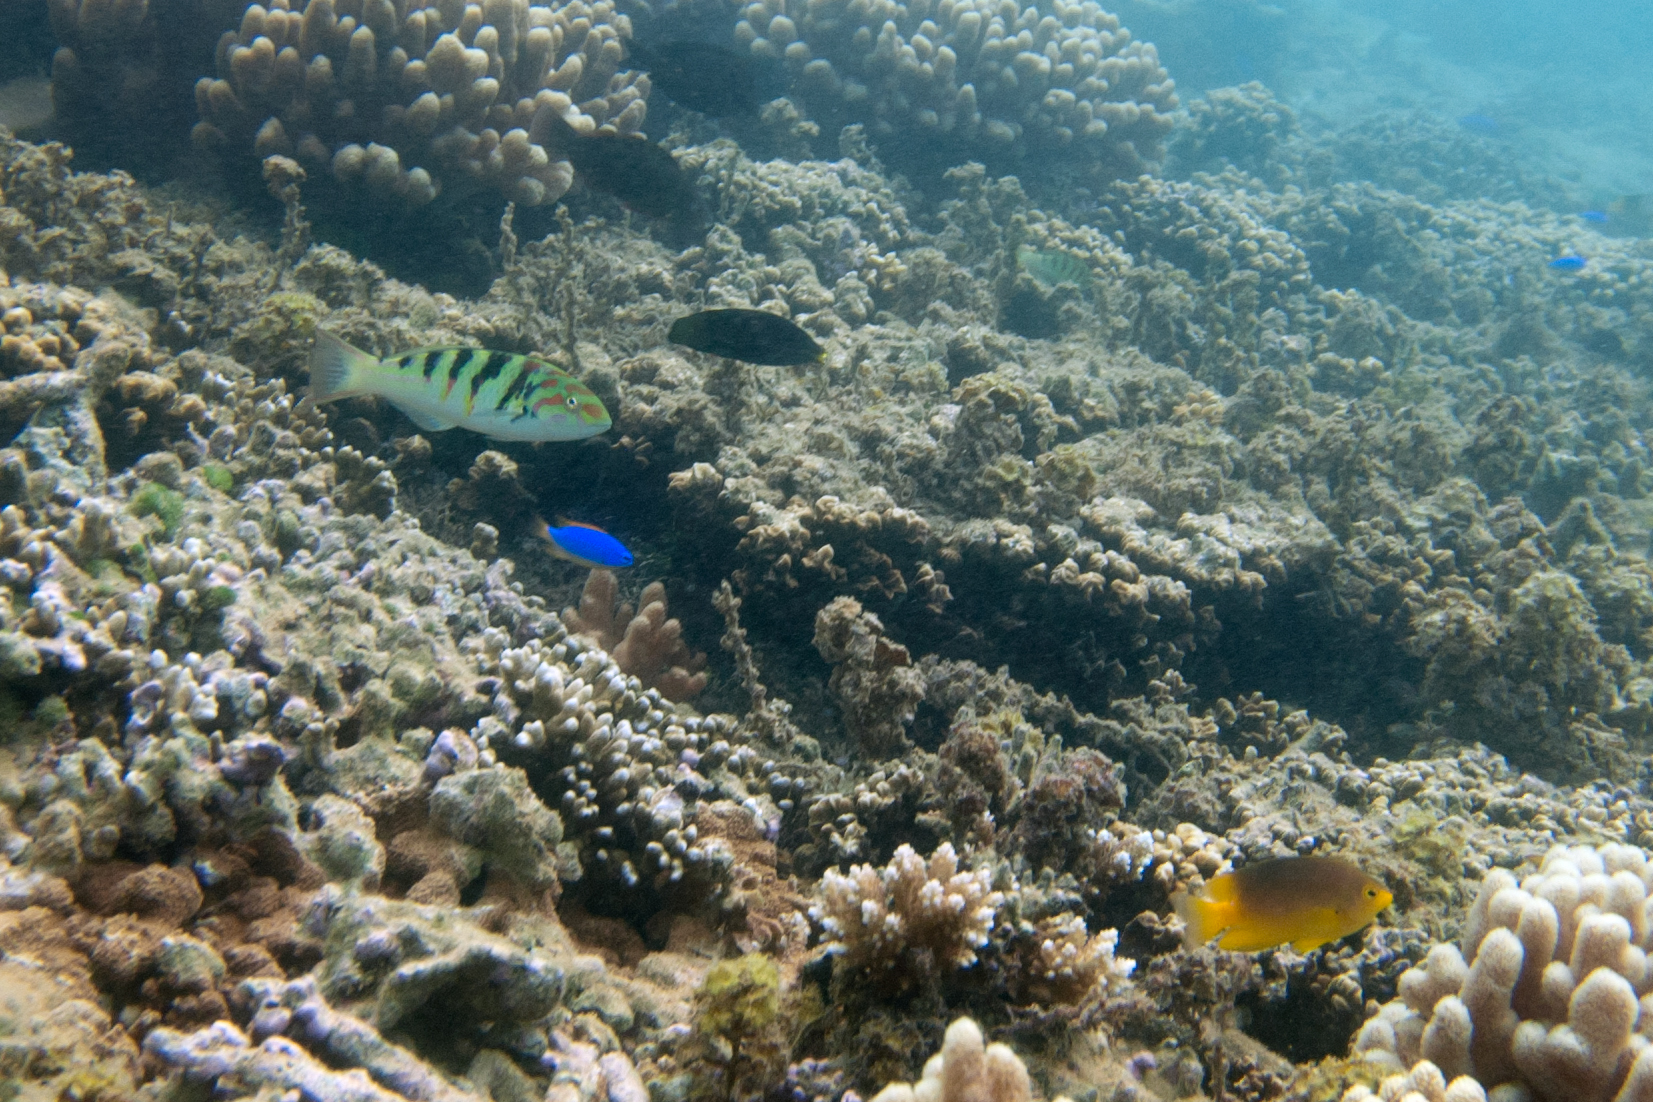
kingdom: Animalia
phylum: Chordata
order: Perciformes
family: Labridae
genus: Thalassoma
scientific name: Thalassoma hardwicke
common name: Sixbar wrasse
